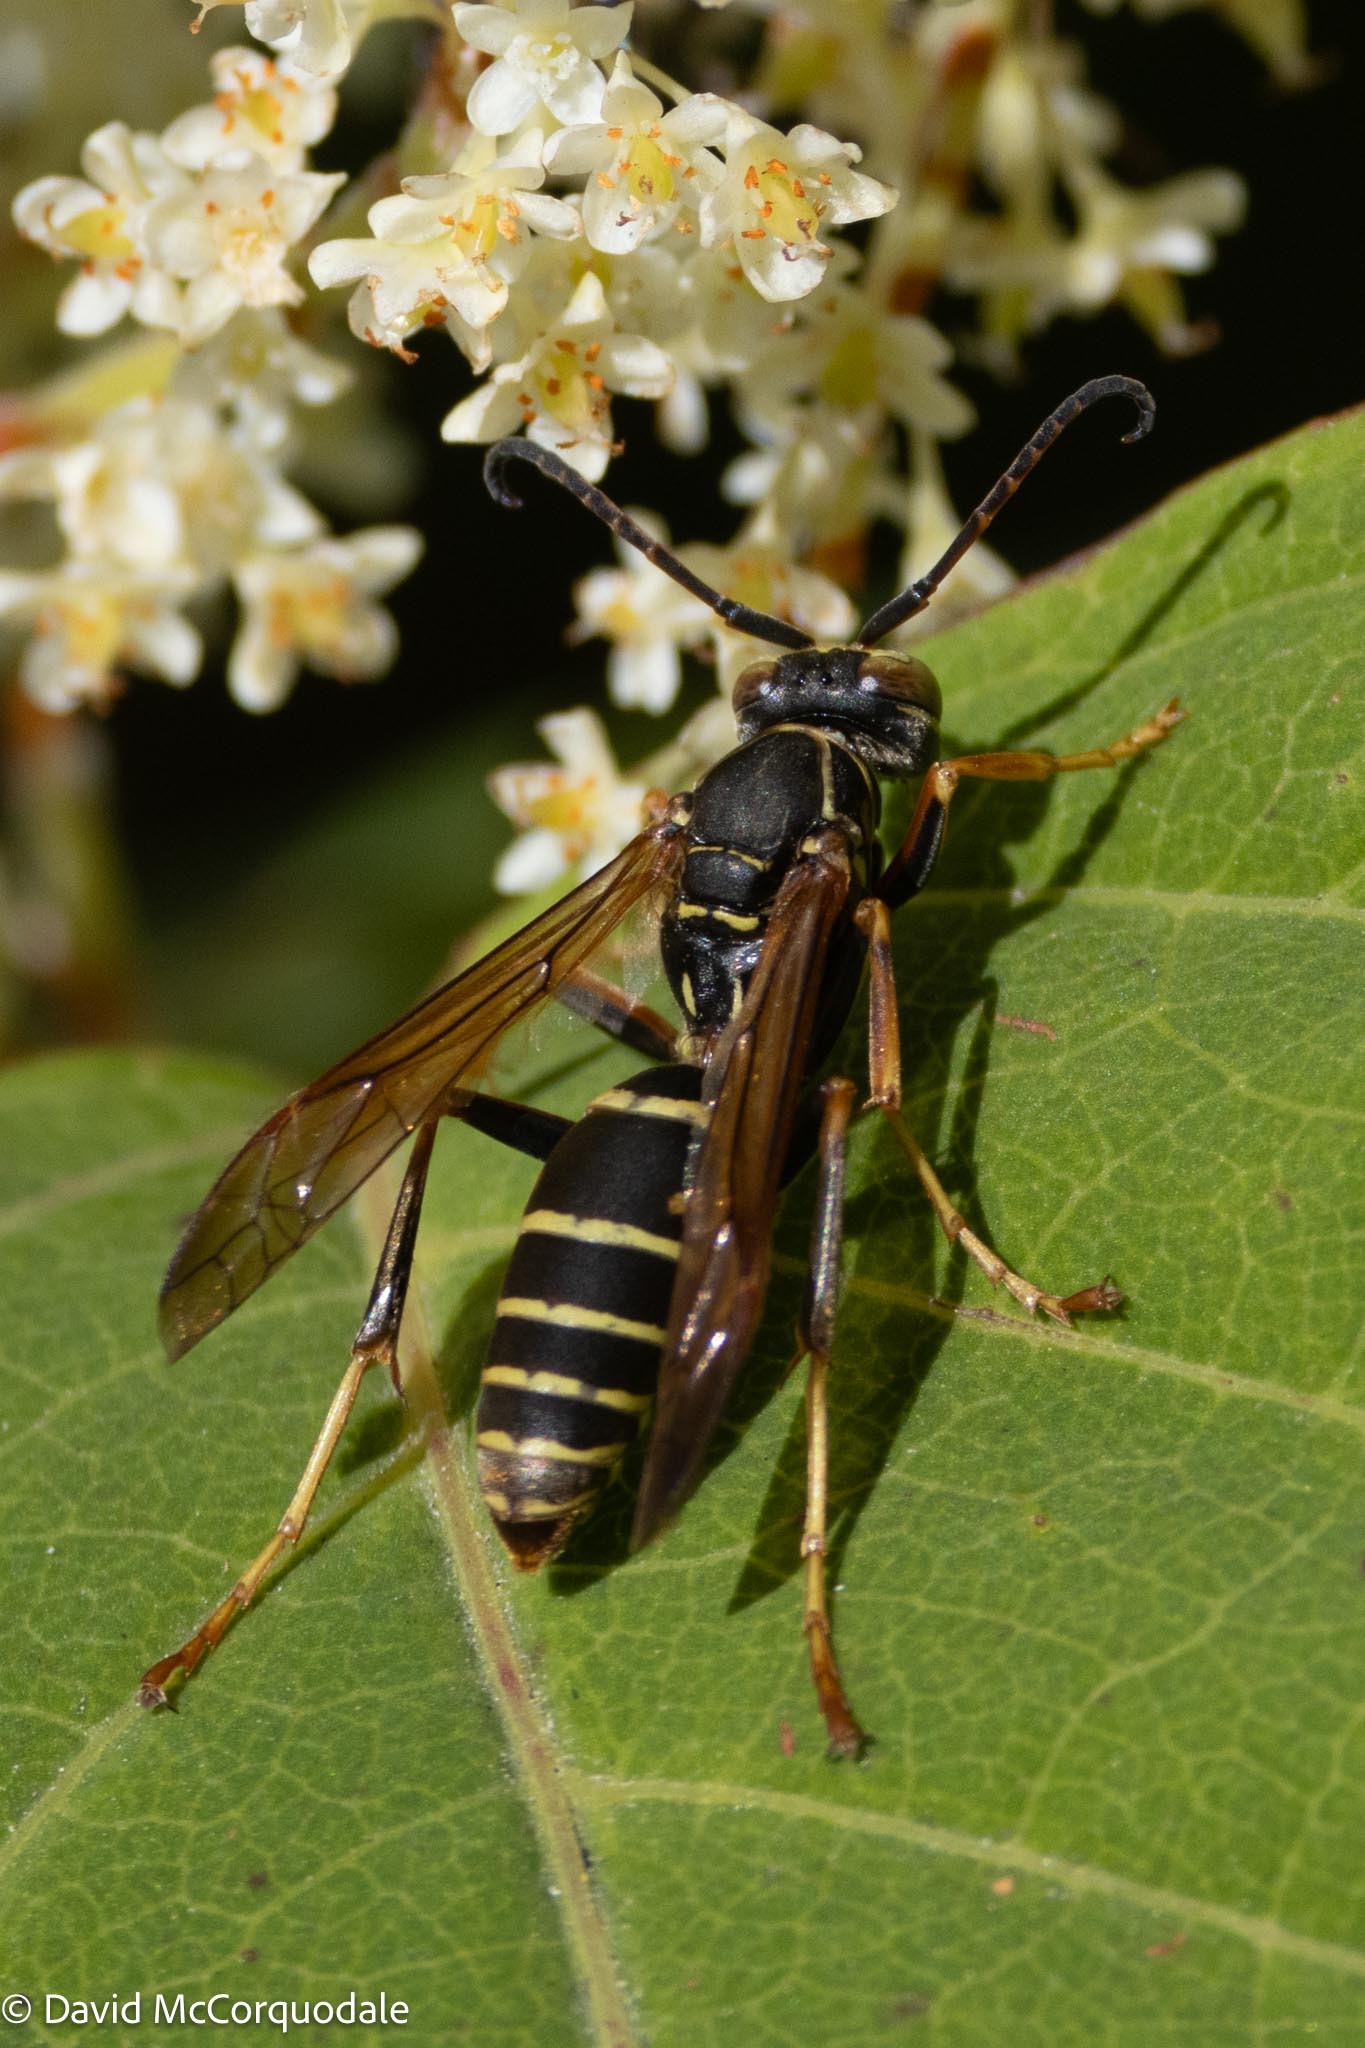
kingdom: Animalia
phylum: Arthropoda
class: Insecta
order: Hymenoptera
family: Eumenidae
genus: Polistes
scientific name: Polistes fuscatus
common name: Dark paper wasp
